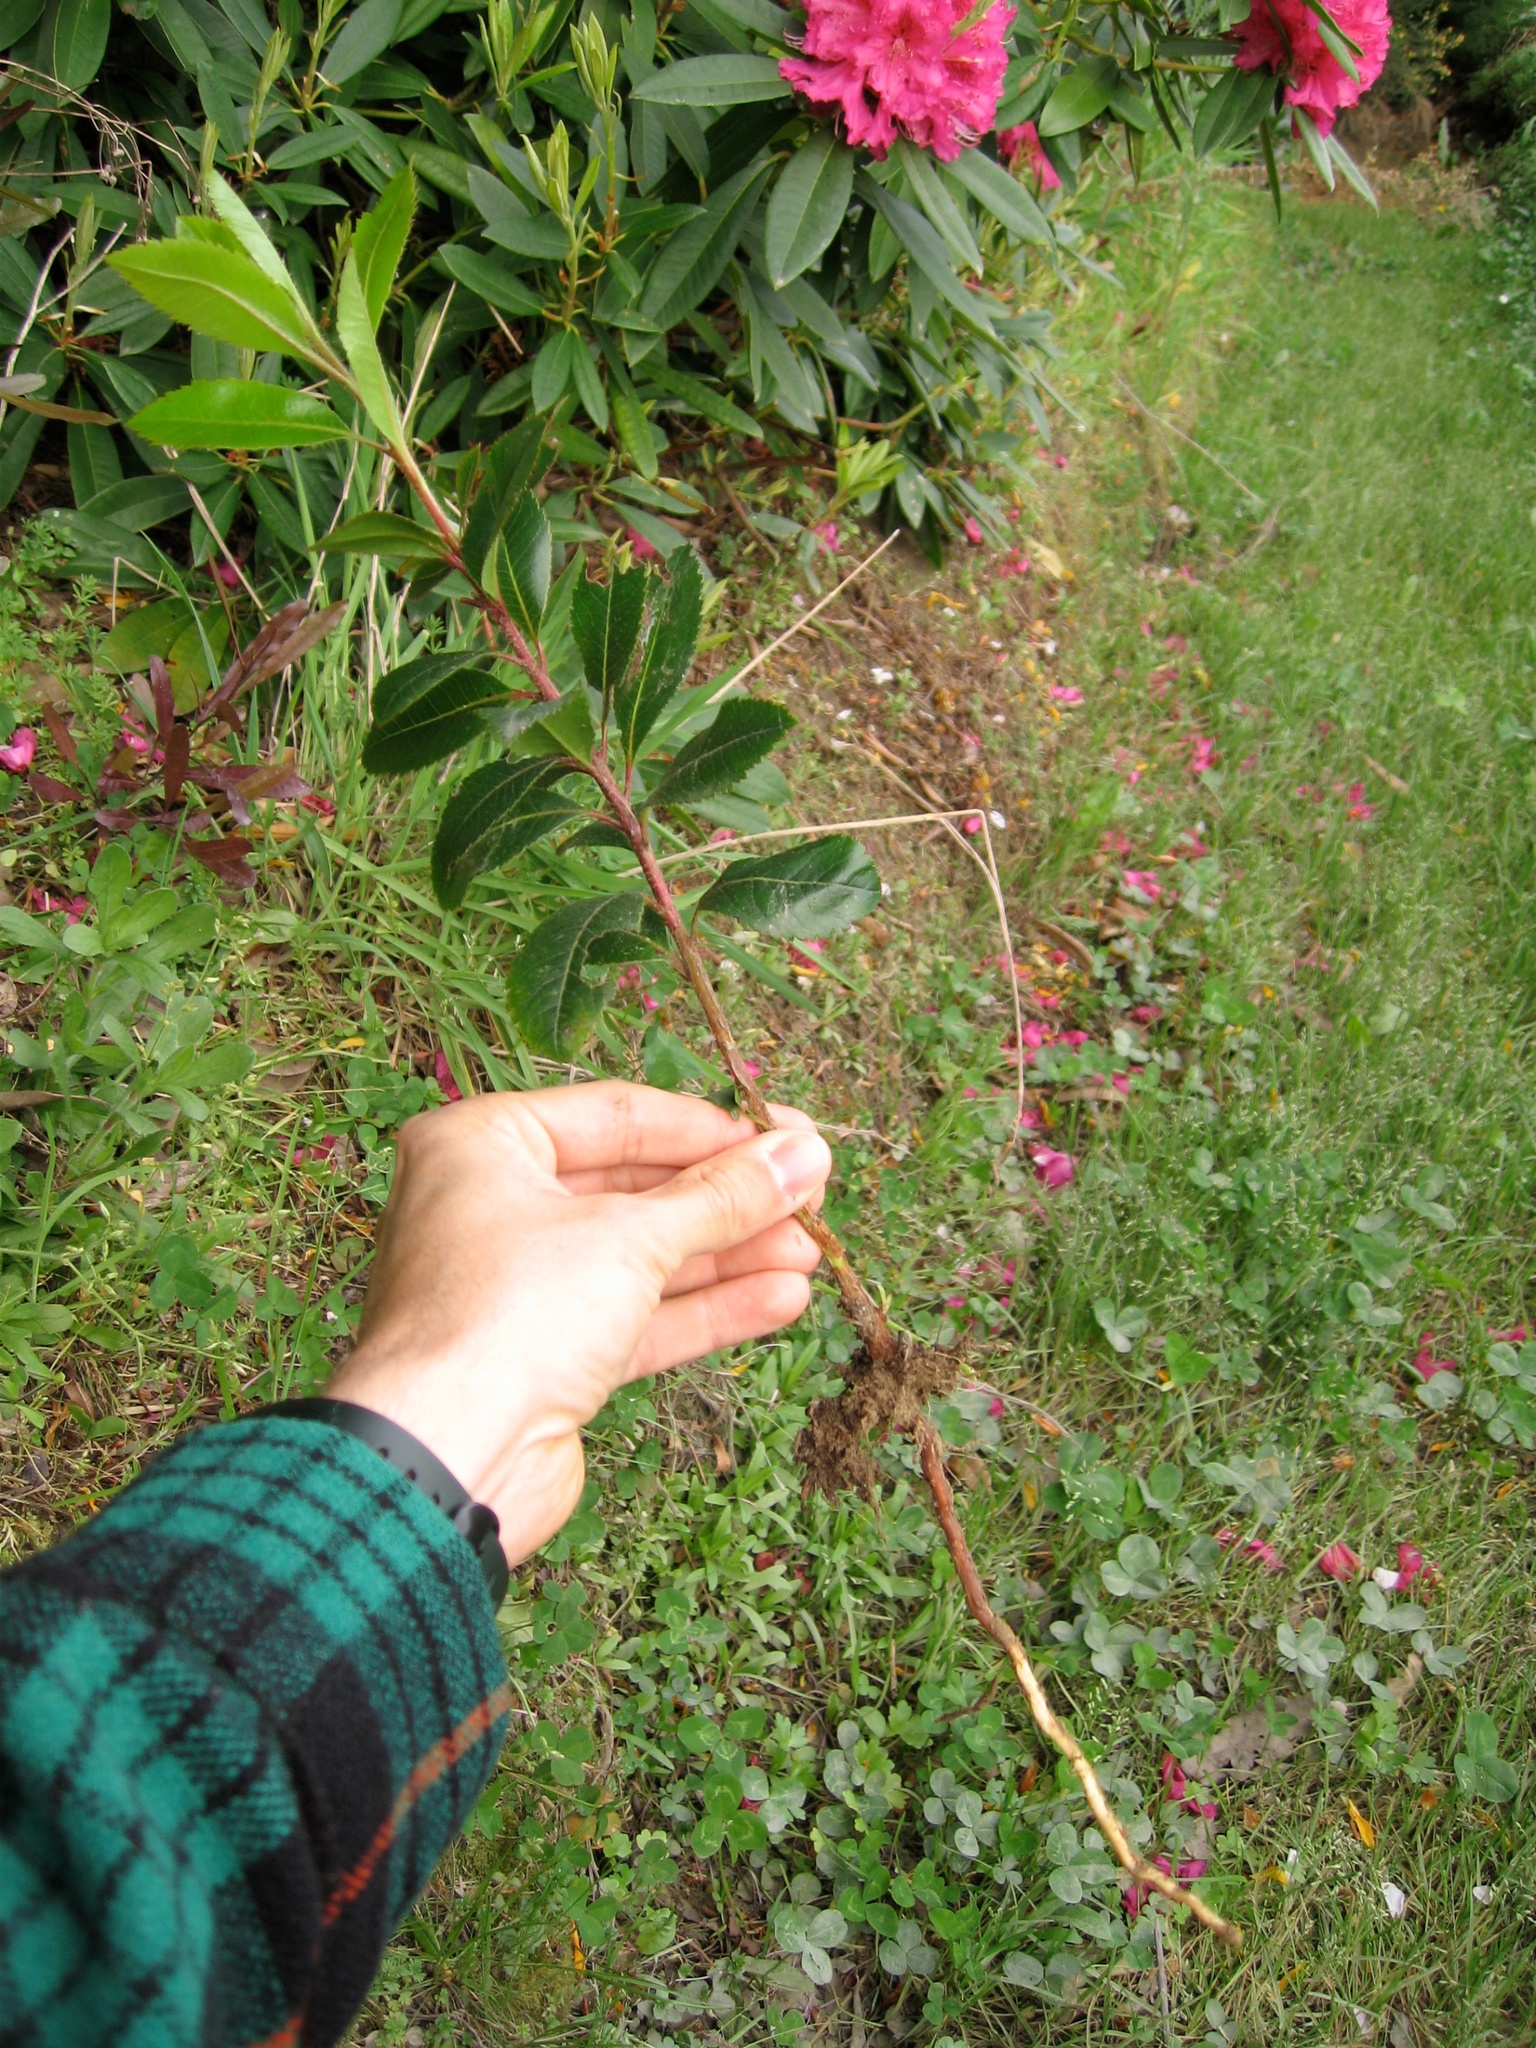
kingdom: Plantae
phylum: Tracheophyta
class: Magnoliopsida
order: Ericales
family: Ericaceae
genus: Arbutus
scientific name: Arbutus unedo
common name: Strawberry-tree
